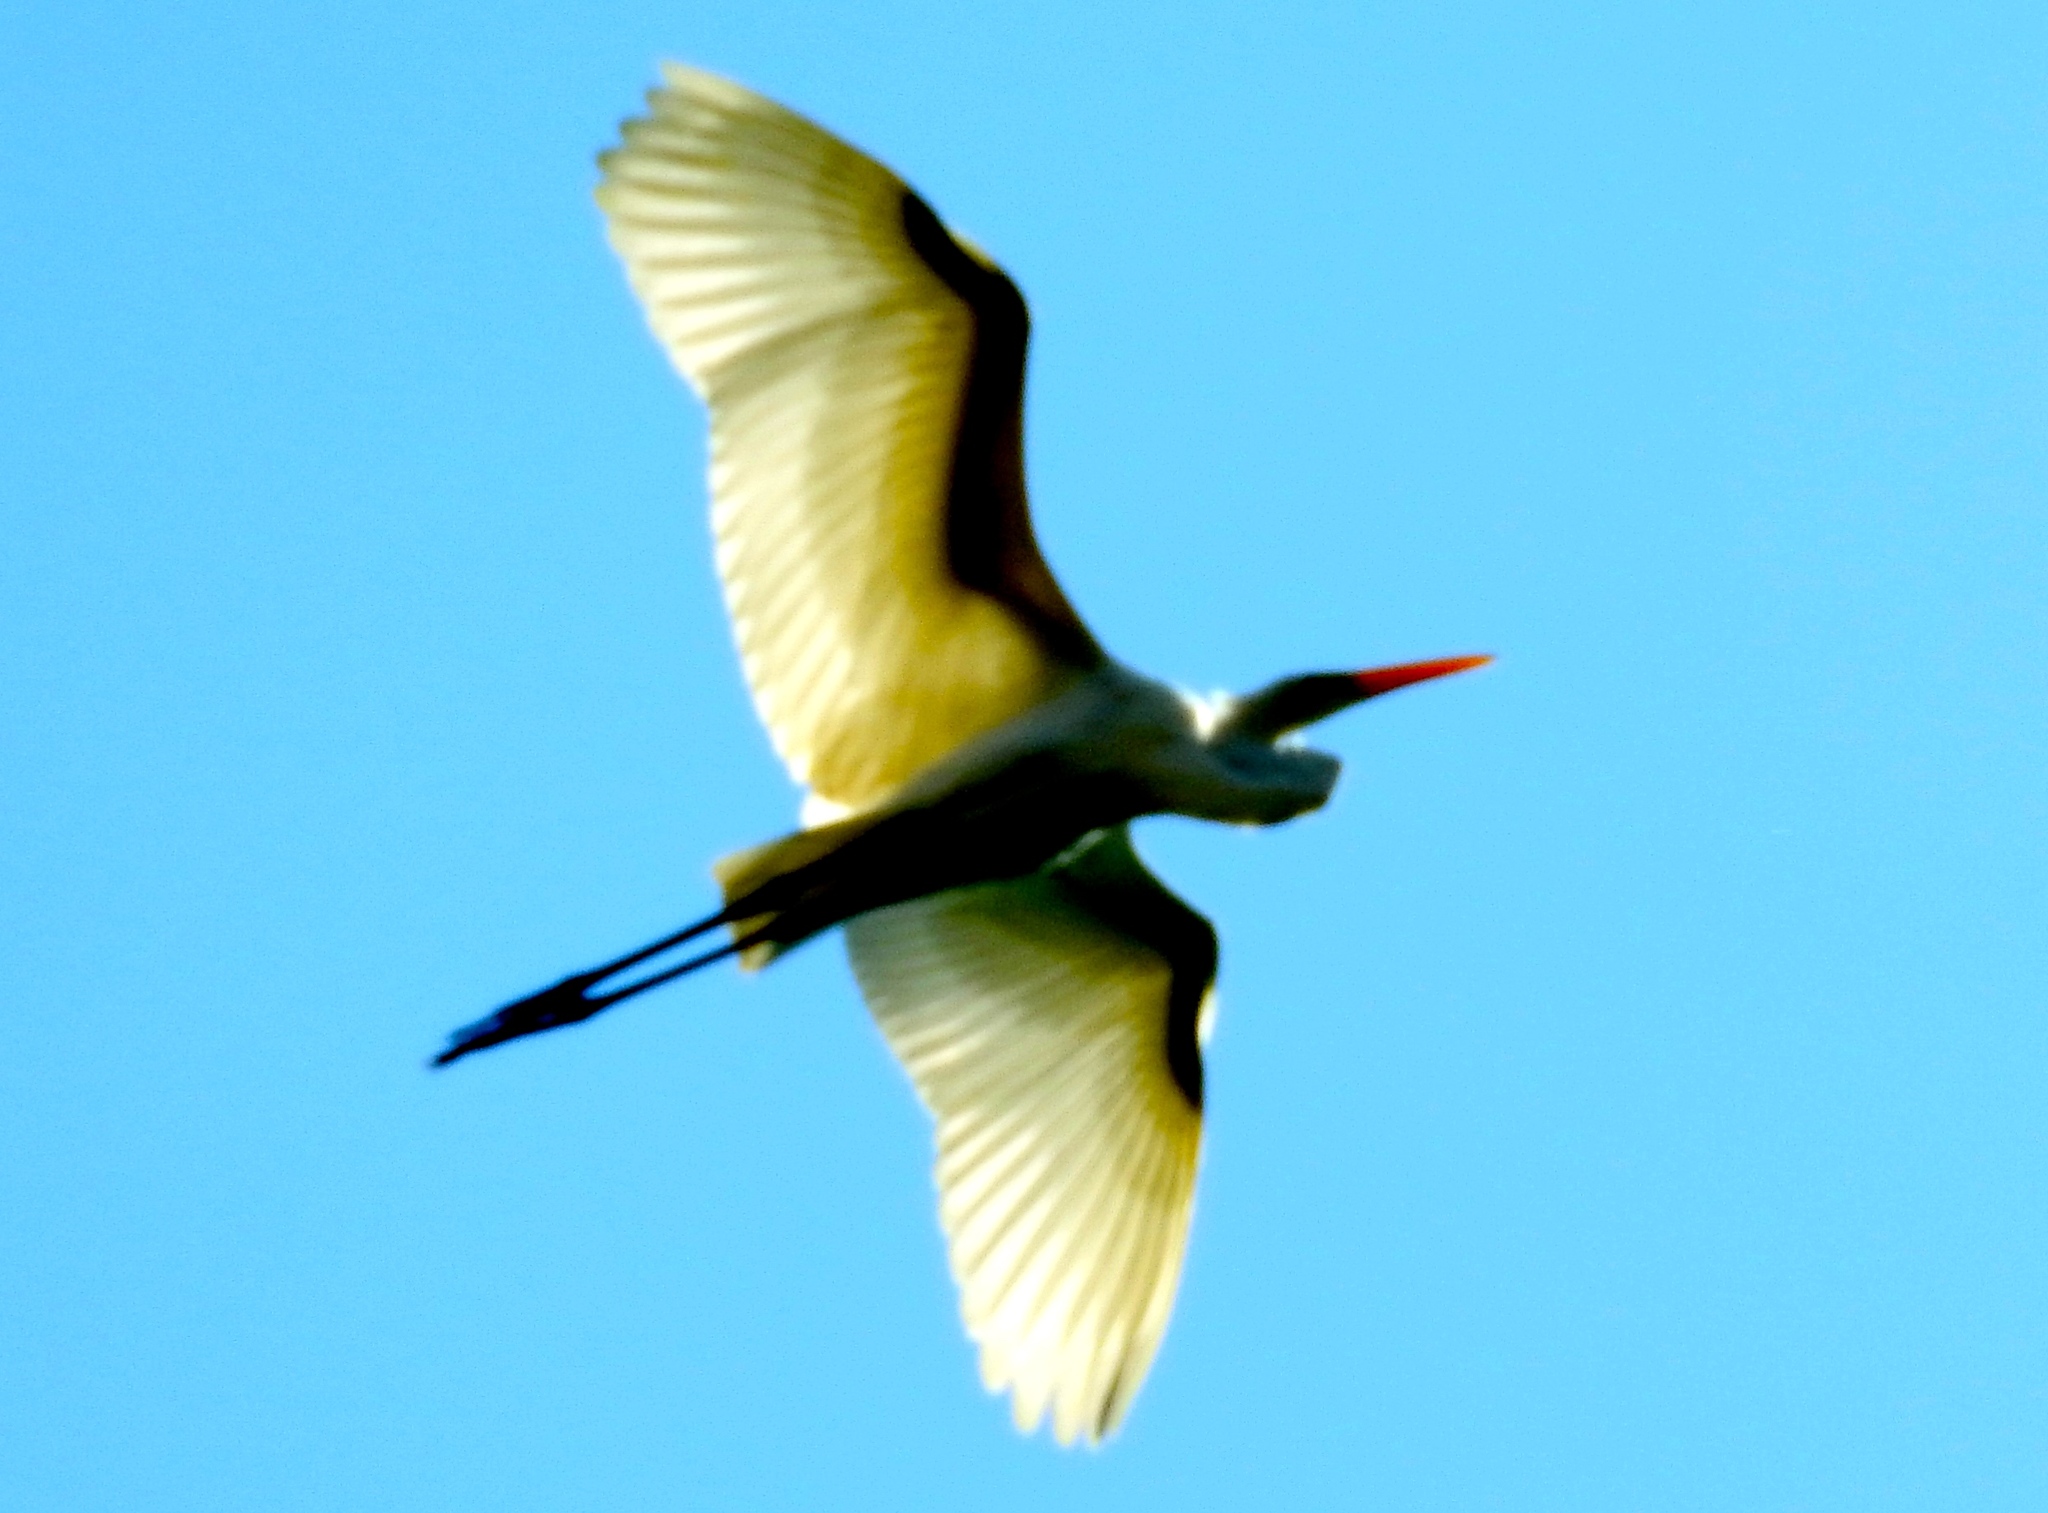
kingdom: Animalia
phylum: Chordata
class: Aves
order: Pelecaniformes
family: Ardeidae
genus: Ardea
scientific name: Ardea alba
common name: Great egret
